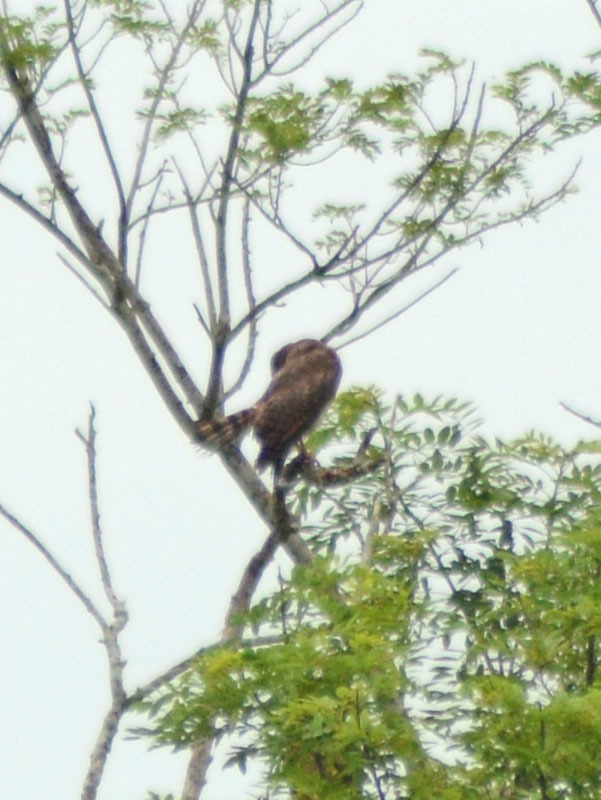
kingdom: Animalia
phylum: Chordata
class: Aves
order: Accipitriformes
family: Accipitridae
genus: Rupornis
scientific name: Rupornis magnirostris
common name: Roadside hawk
